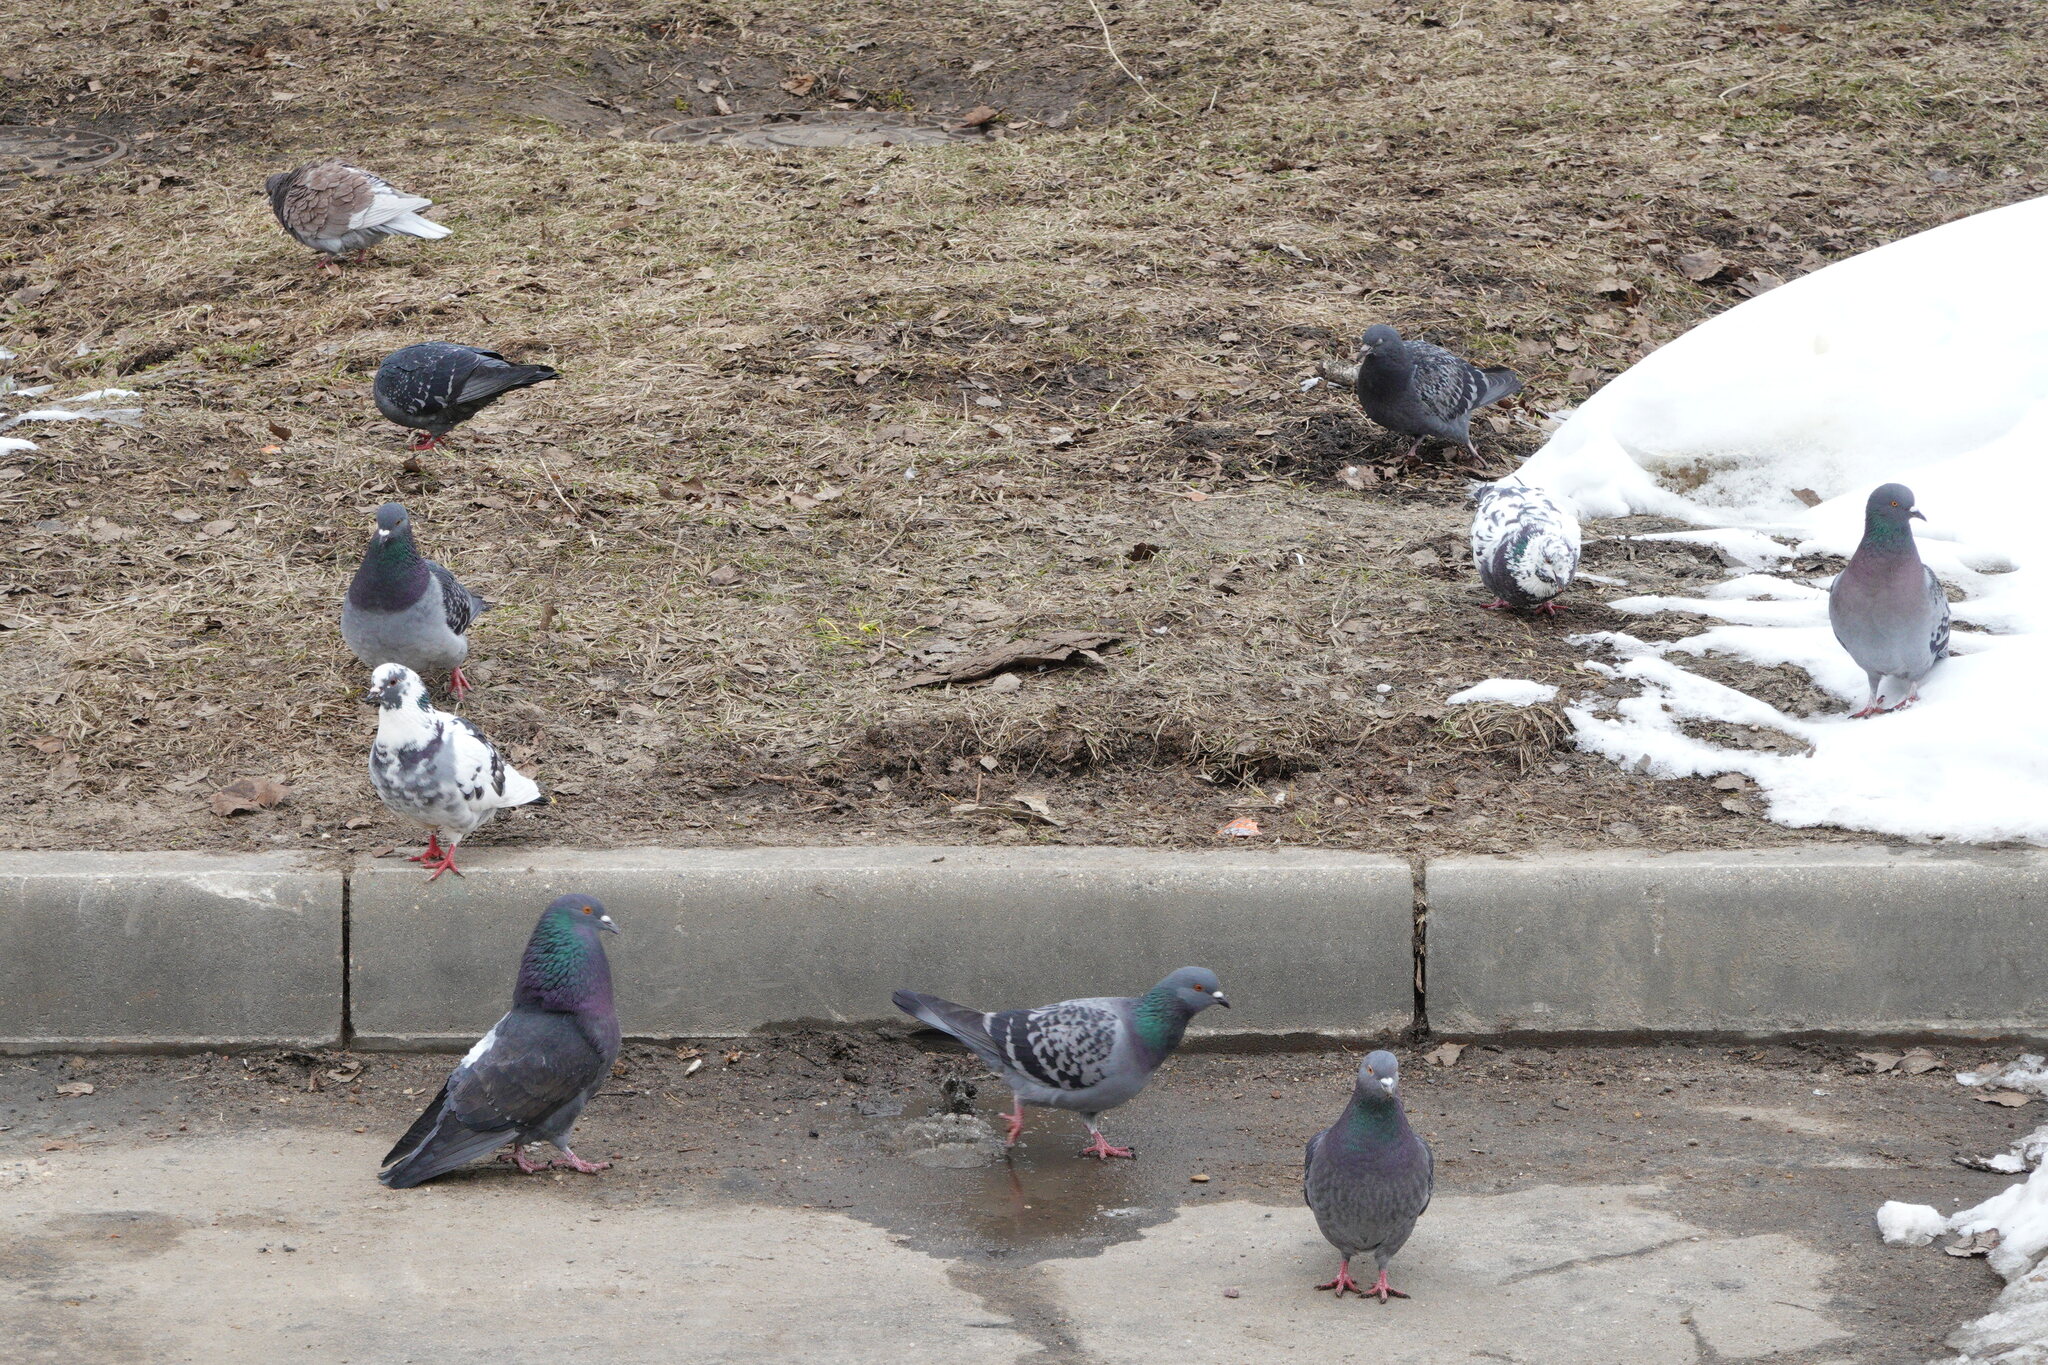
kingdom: Animalia
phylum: Chordata
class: Aves
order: Columbiformes
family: Columbidae
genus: Columba
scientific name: Columba livia
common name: Rock pigeon
